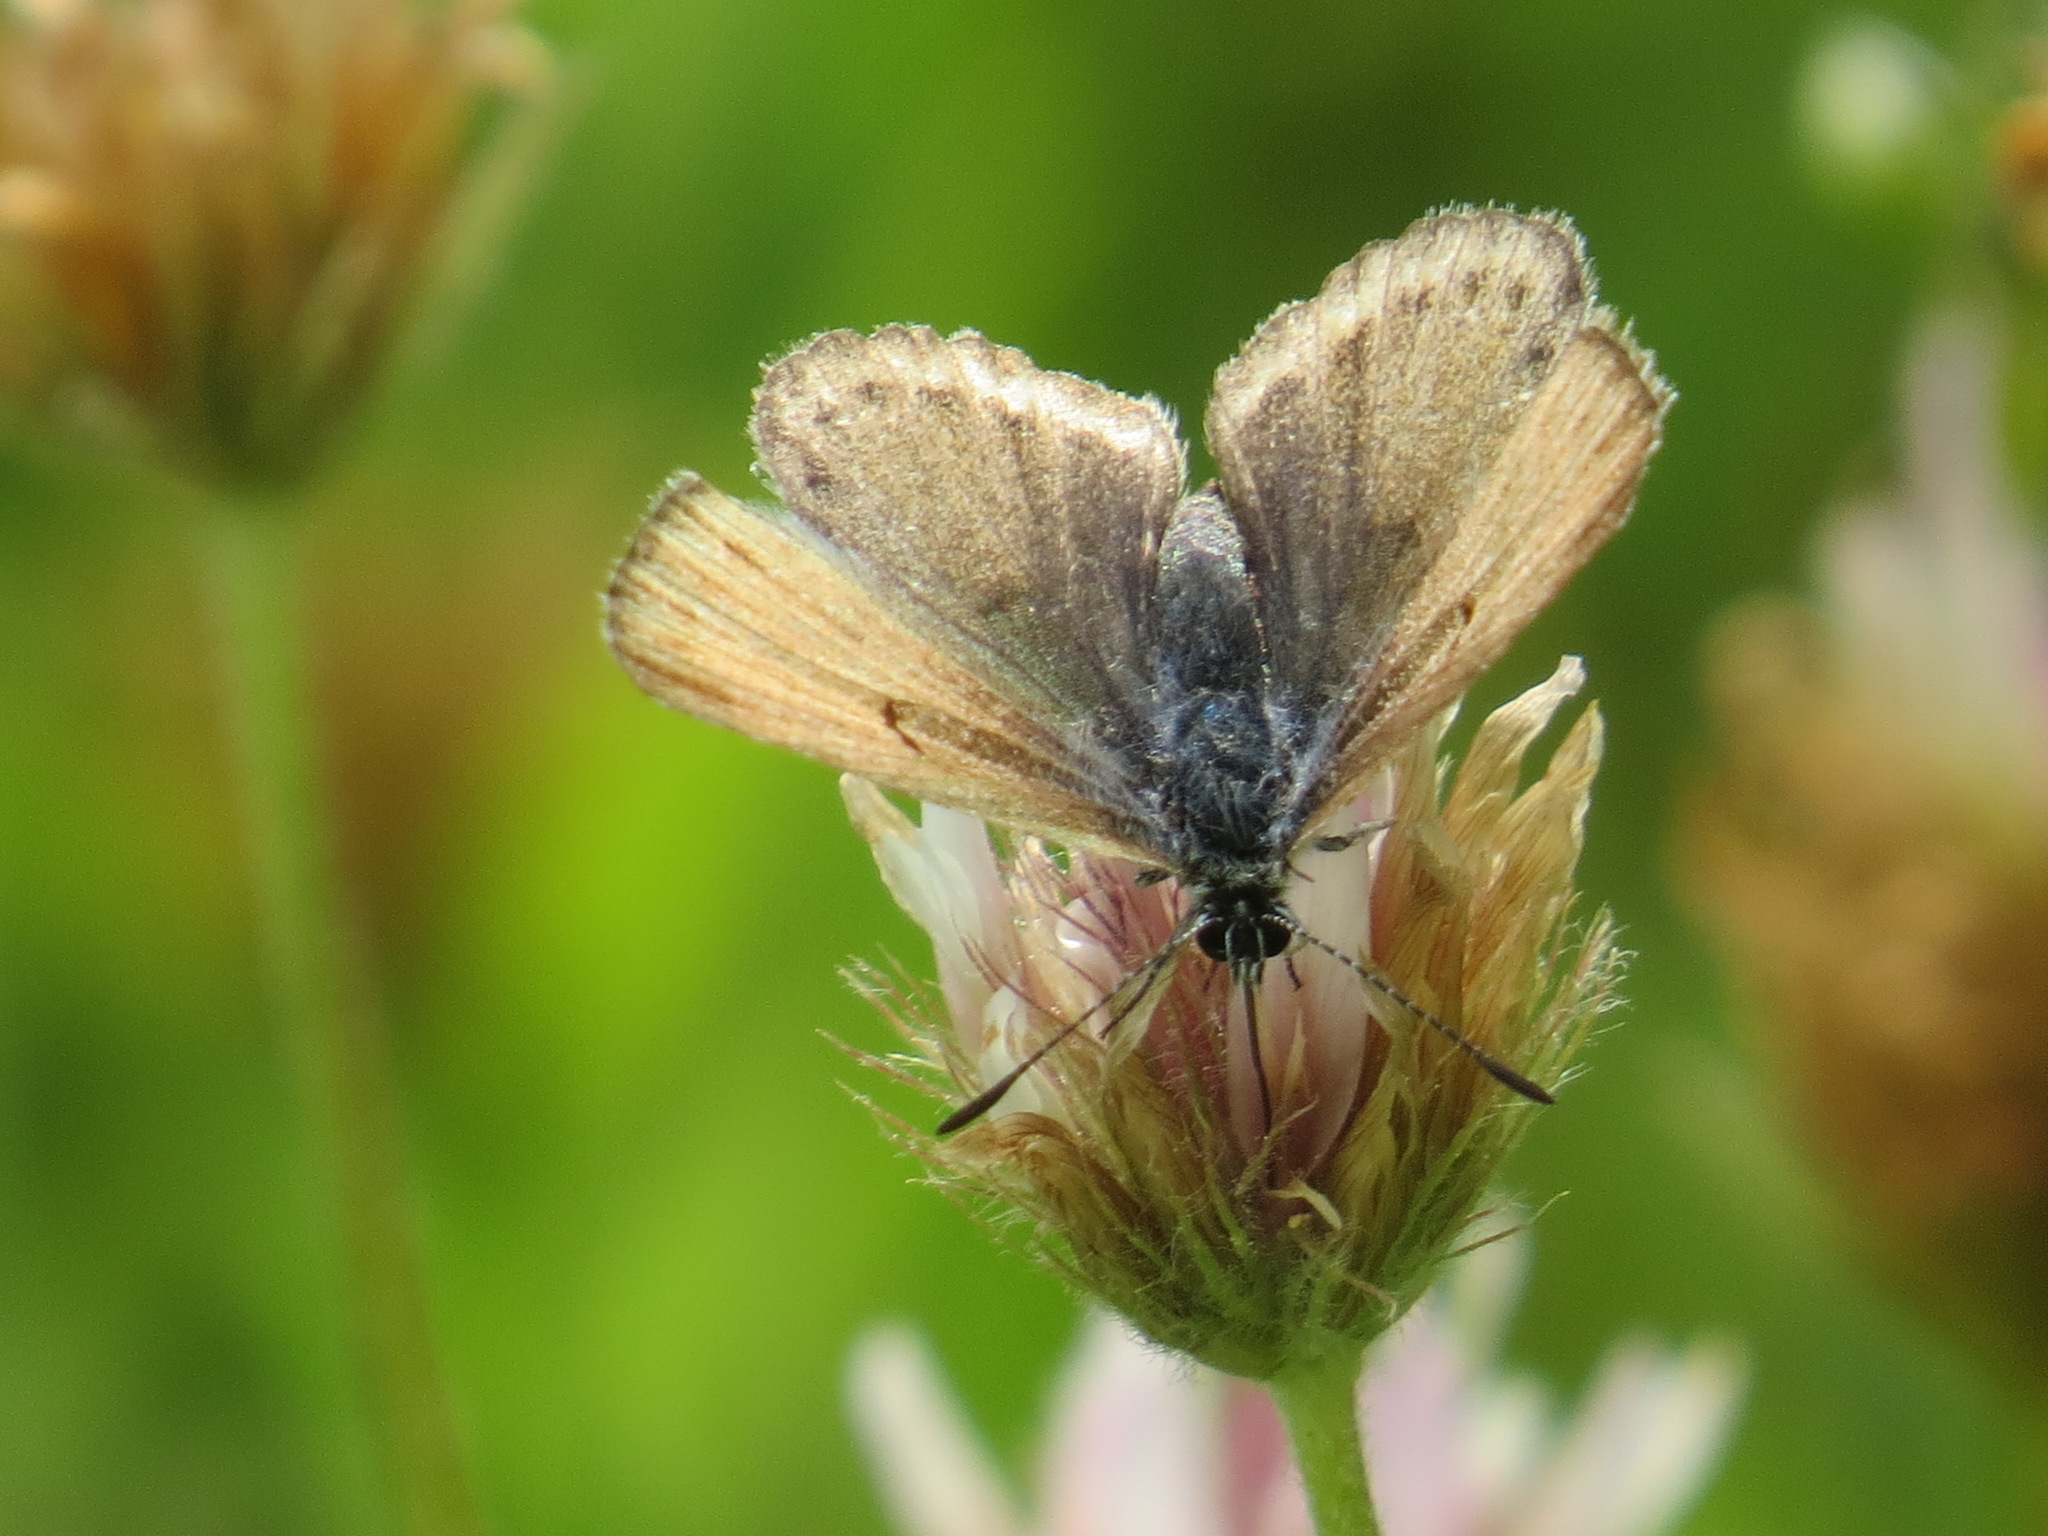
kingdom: Animalia
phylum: Arthropoda
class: Insecta
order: Lepidoptera
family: Lycaenidae
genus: Icaricia
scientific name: Icaricia saepiolus
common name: Greenish blue
